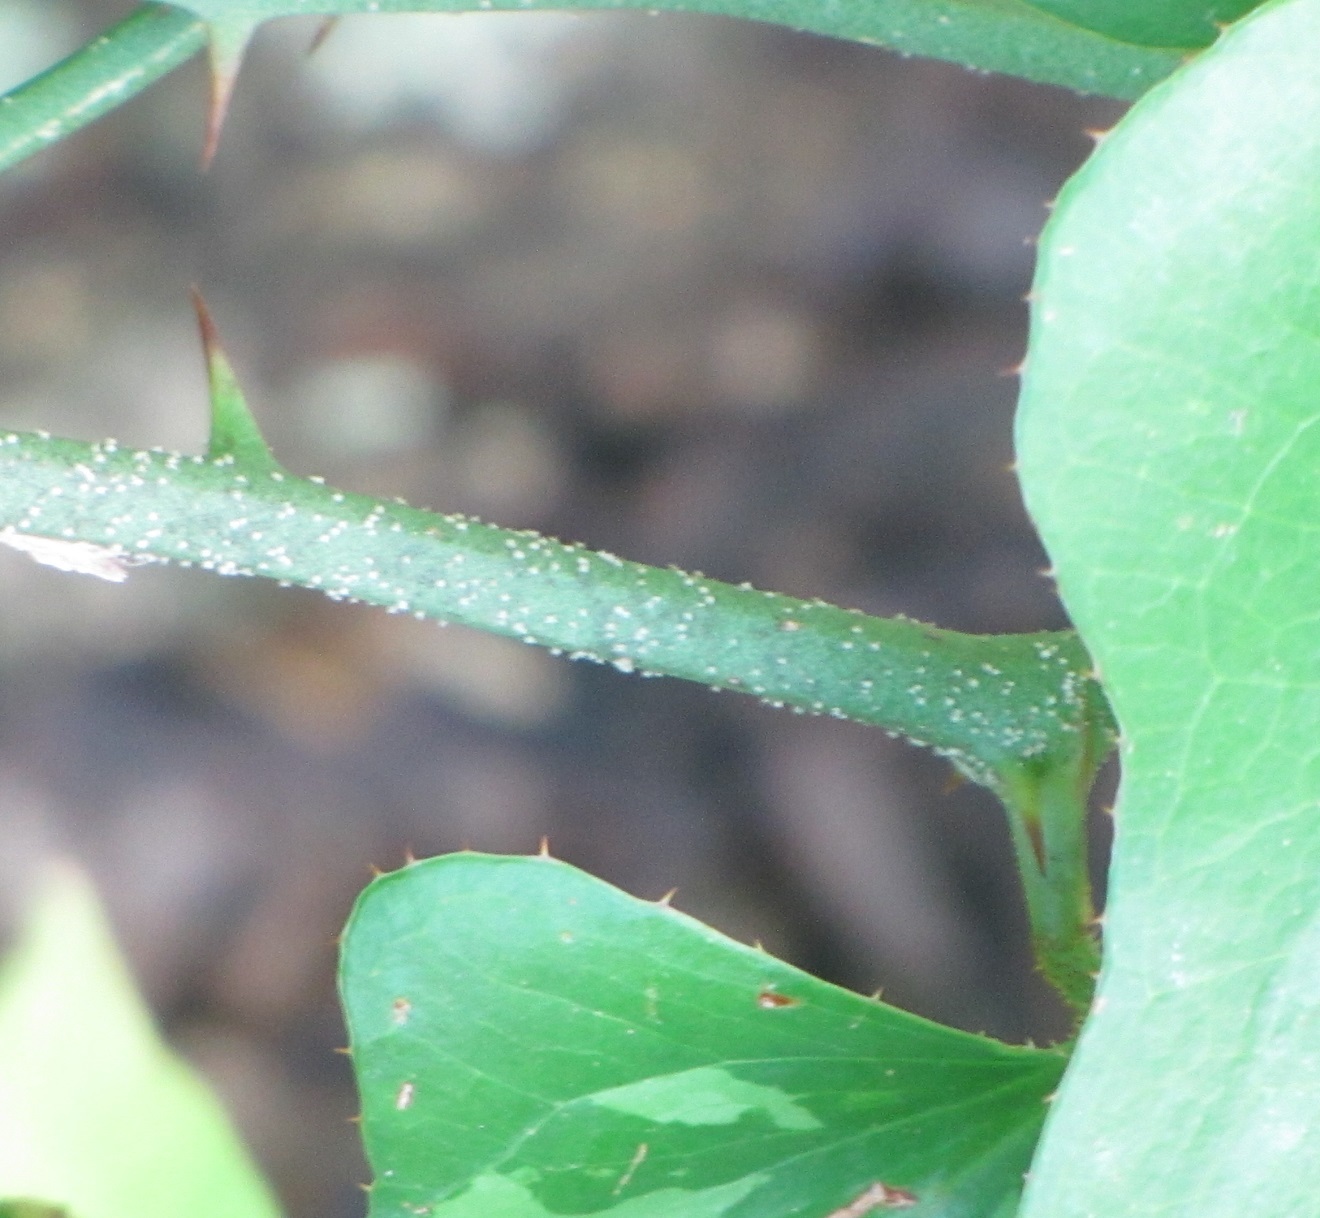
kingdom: Plantae
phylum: Tracheophyta
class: Liliopsida
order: Liliales
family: Smilacaceae
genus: Smilax
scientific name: Smilax bona-nox
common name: Catbrier
